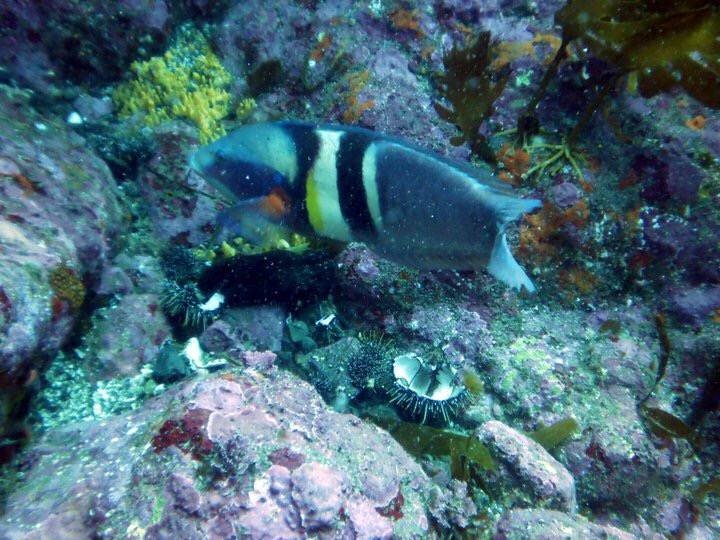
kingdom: Animalia
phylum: Chordata
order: Perciformes
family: Labridae
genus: Coris
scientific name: Coris sandeyeri
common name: Sandager's wrasse
